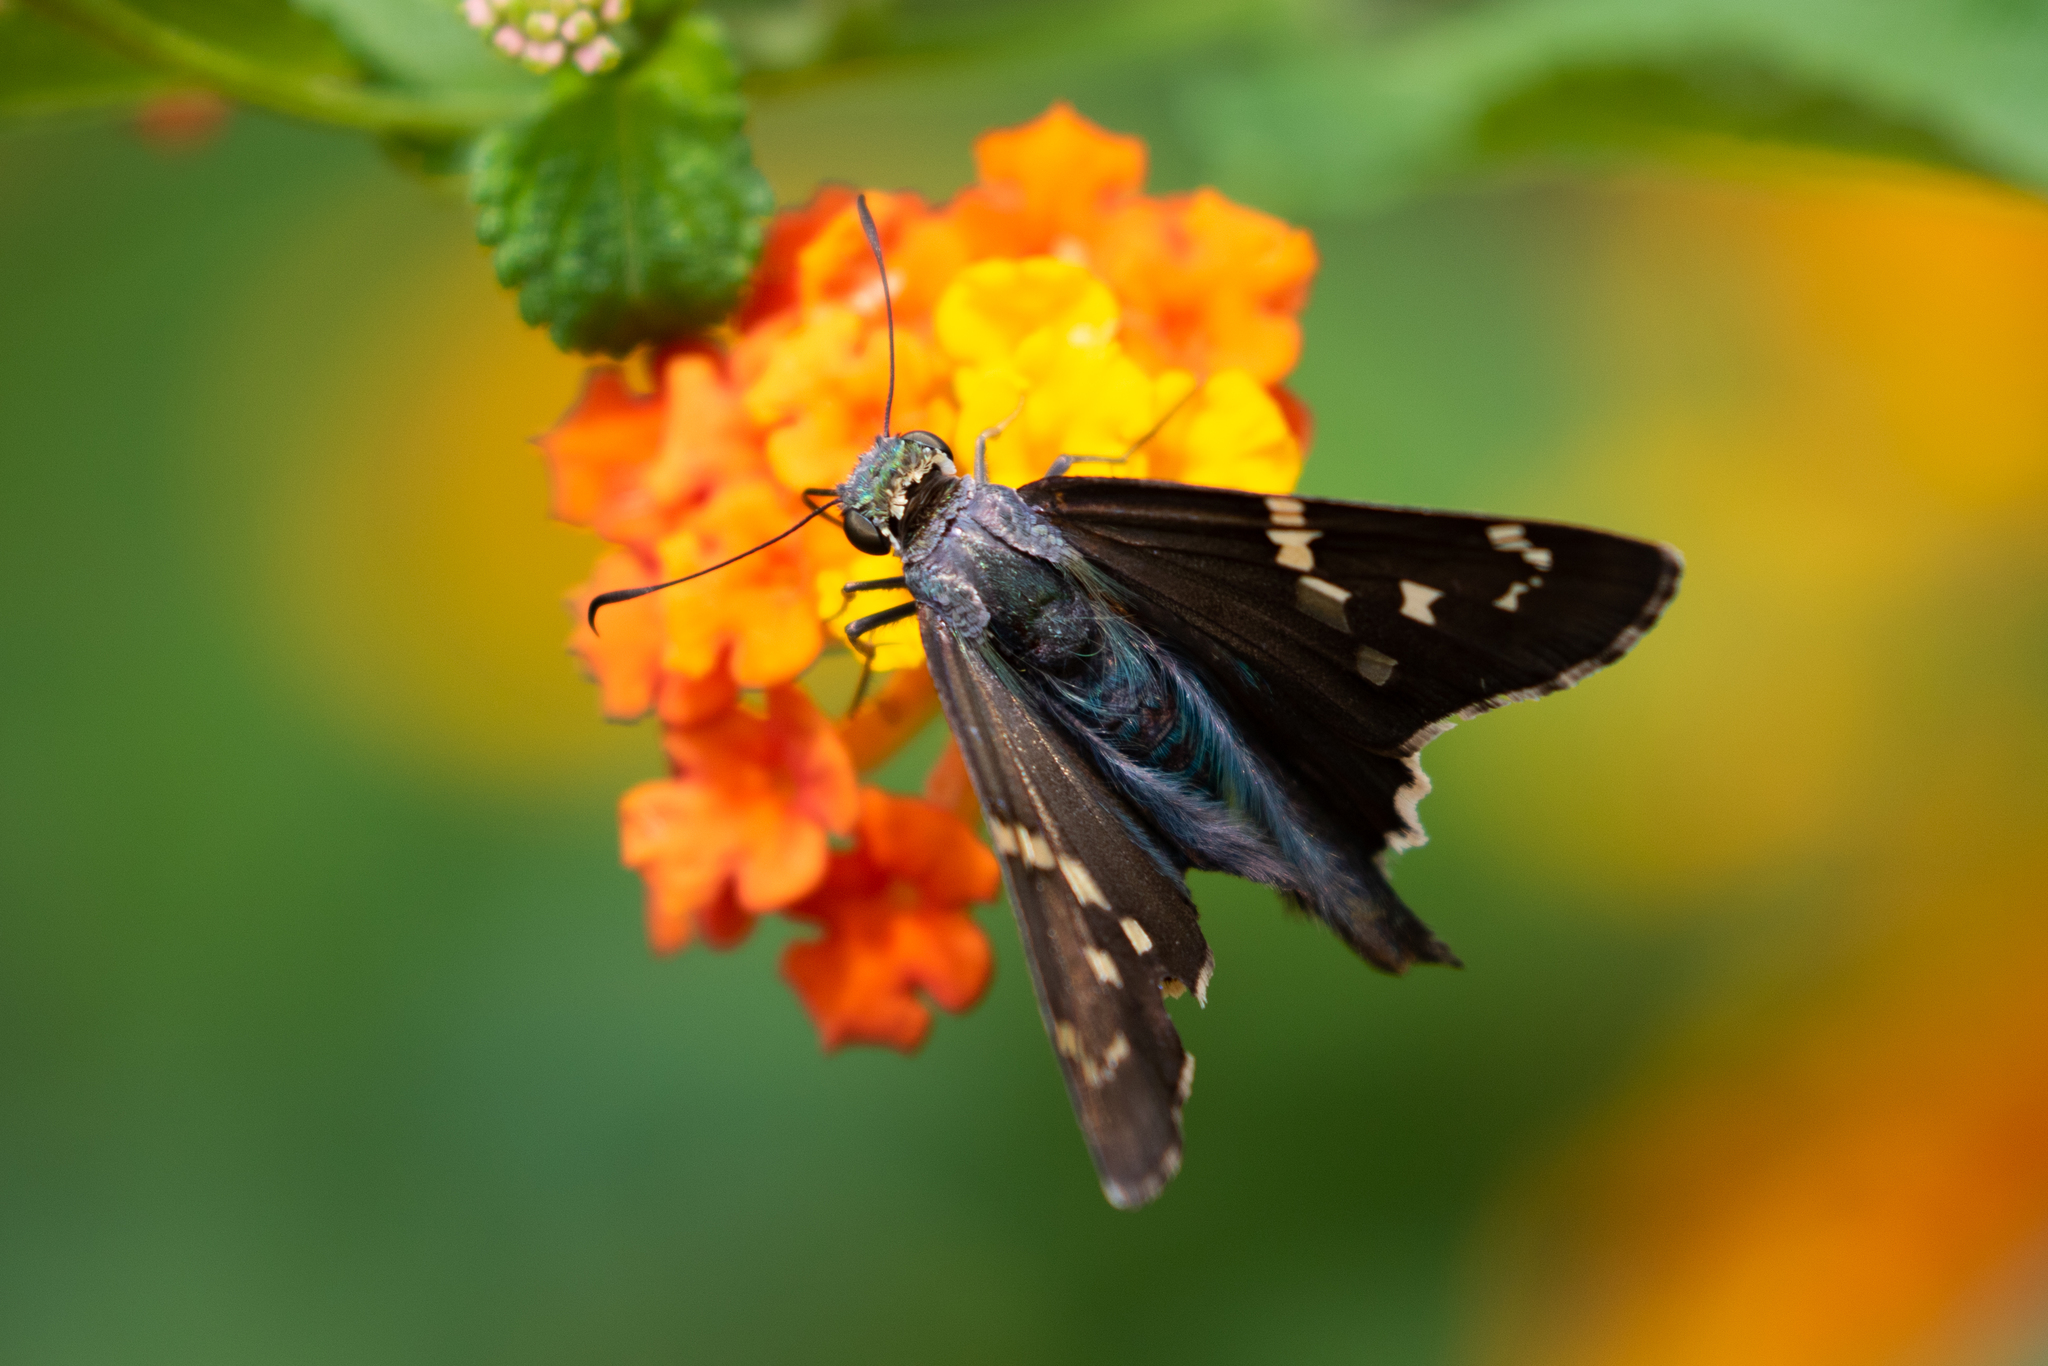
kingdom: Animalia
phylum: Arthropoda
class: Insecta
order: Lepidoptera
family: Hesperiidae
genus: Urbanus
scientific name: Urbanus proteus
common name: Long-tailed skipper
